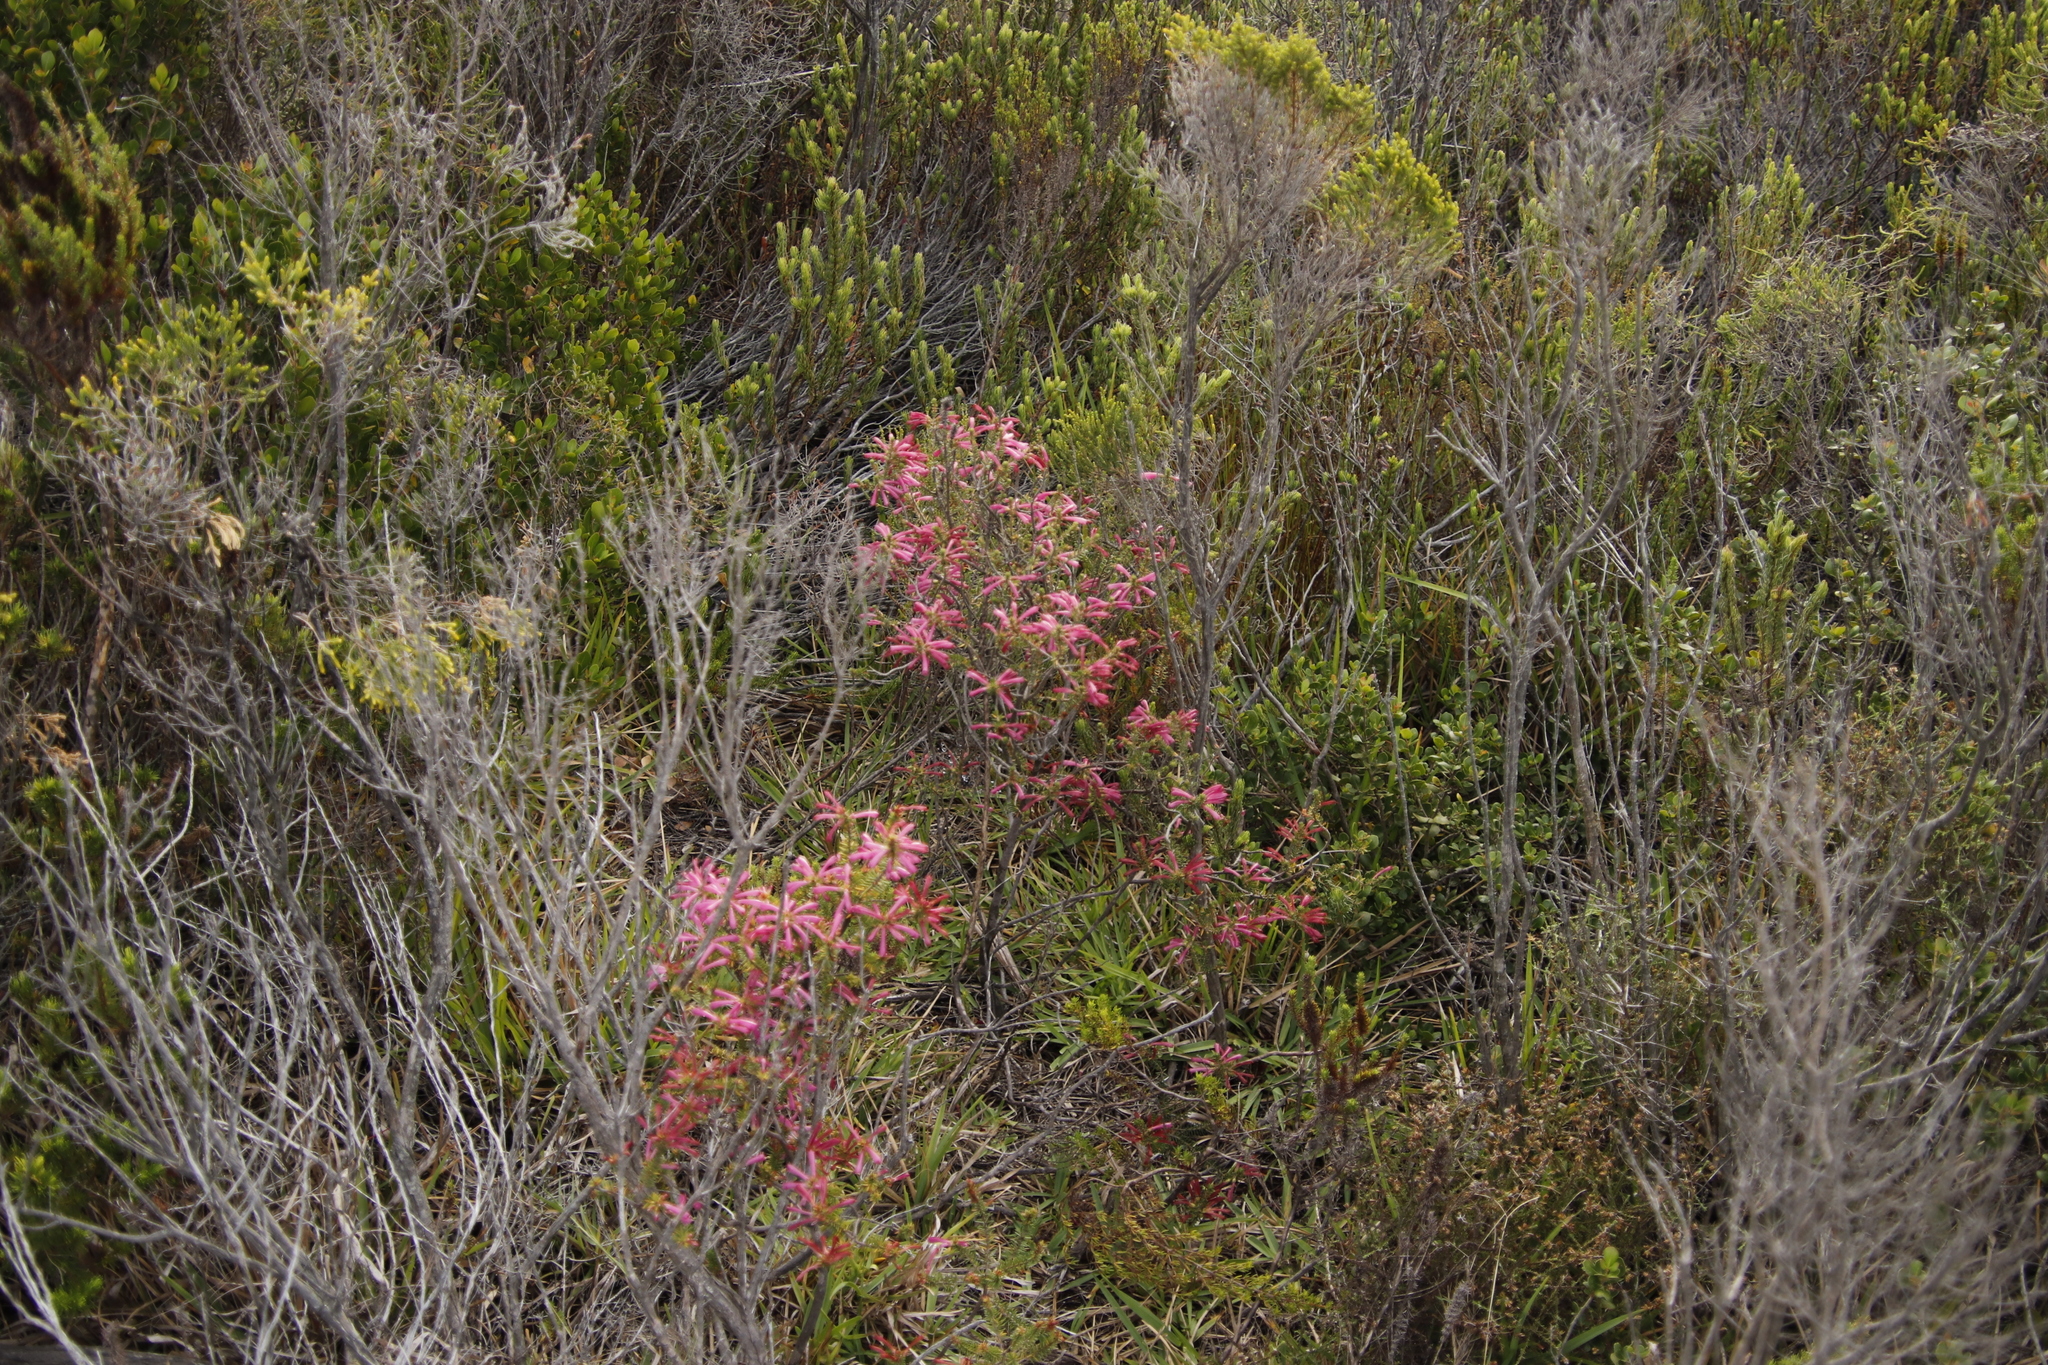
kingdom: Plantae
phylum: Tracheophyta
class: Magnoliopsida
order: Ericales
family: Ericaceae
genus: Erica
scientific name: Erica abietina
